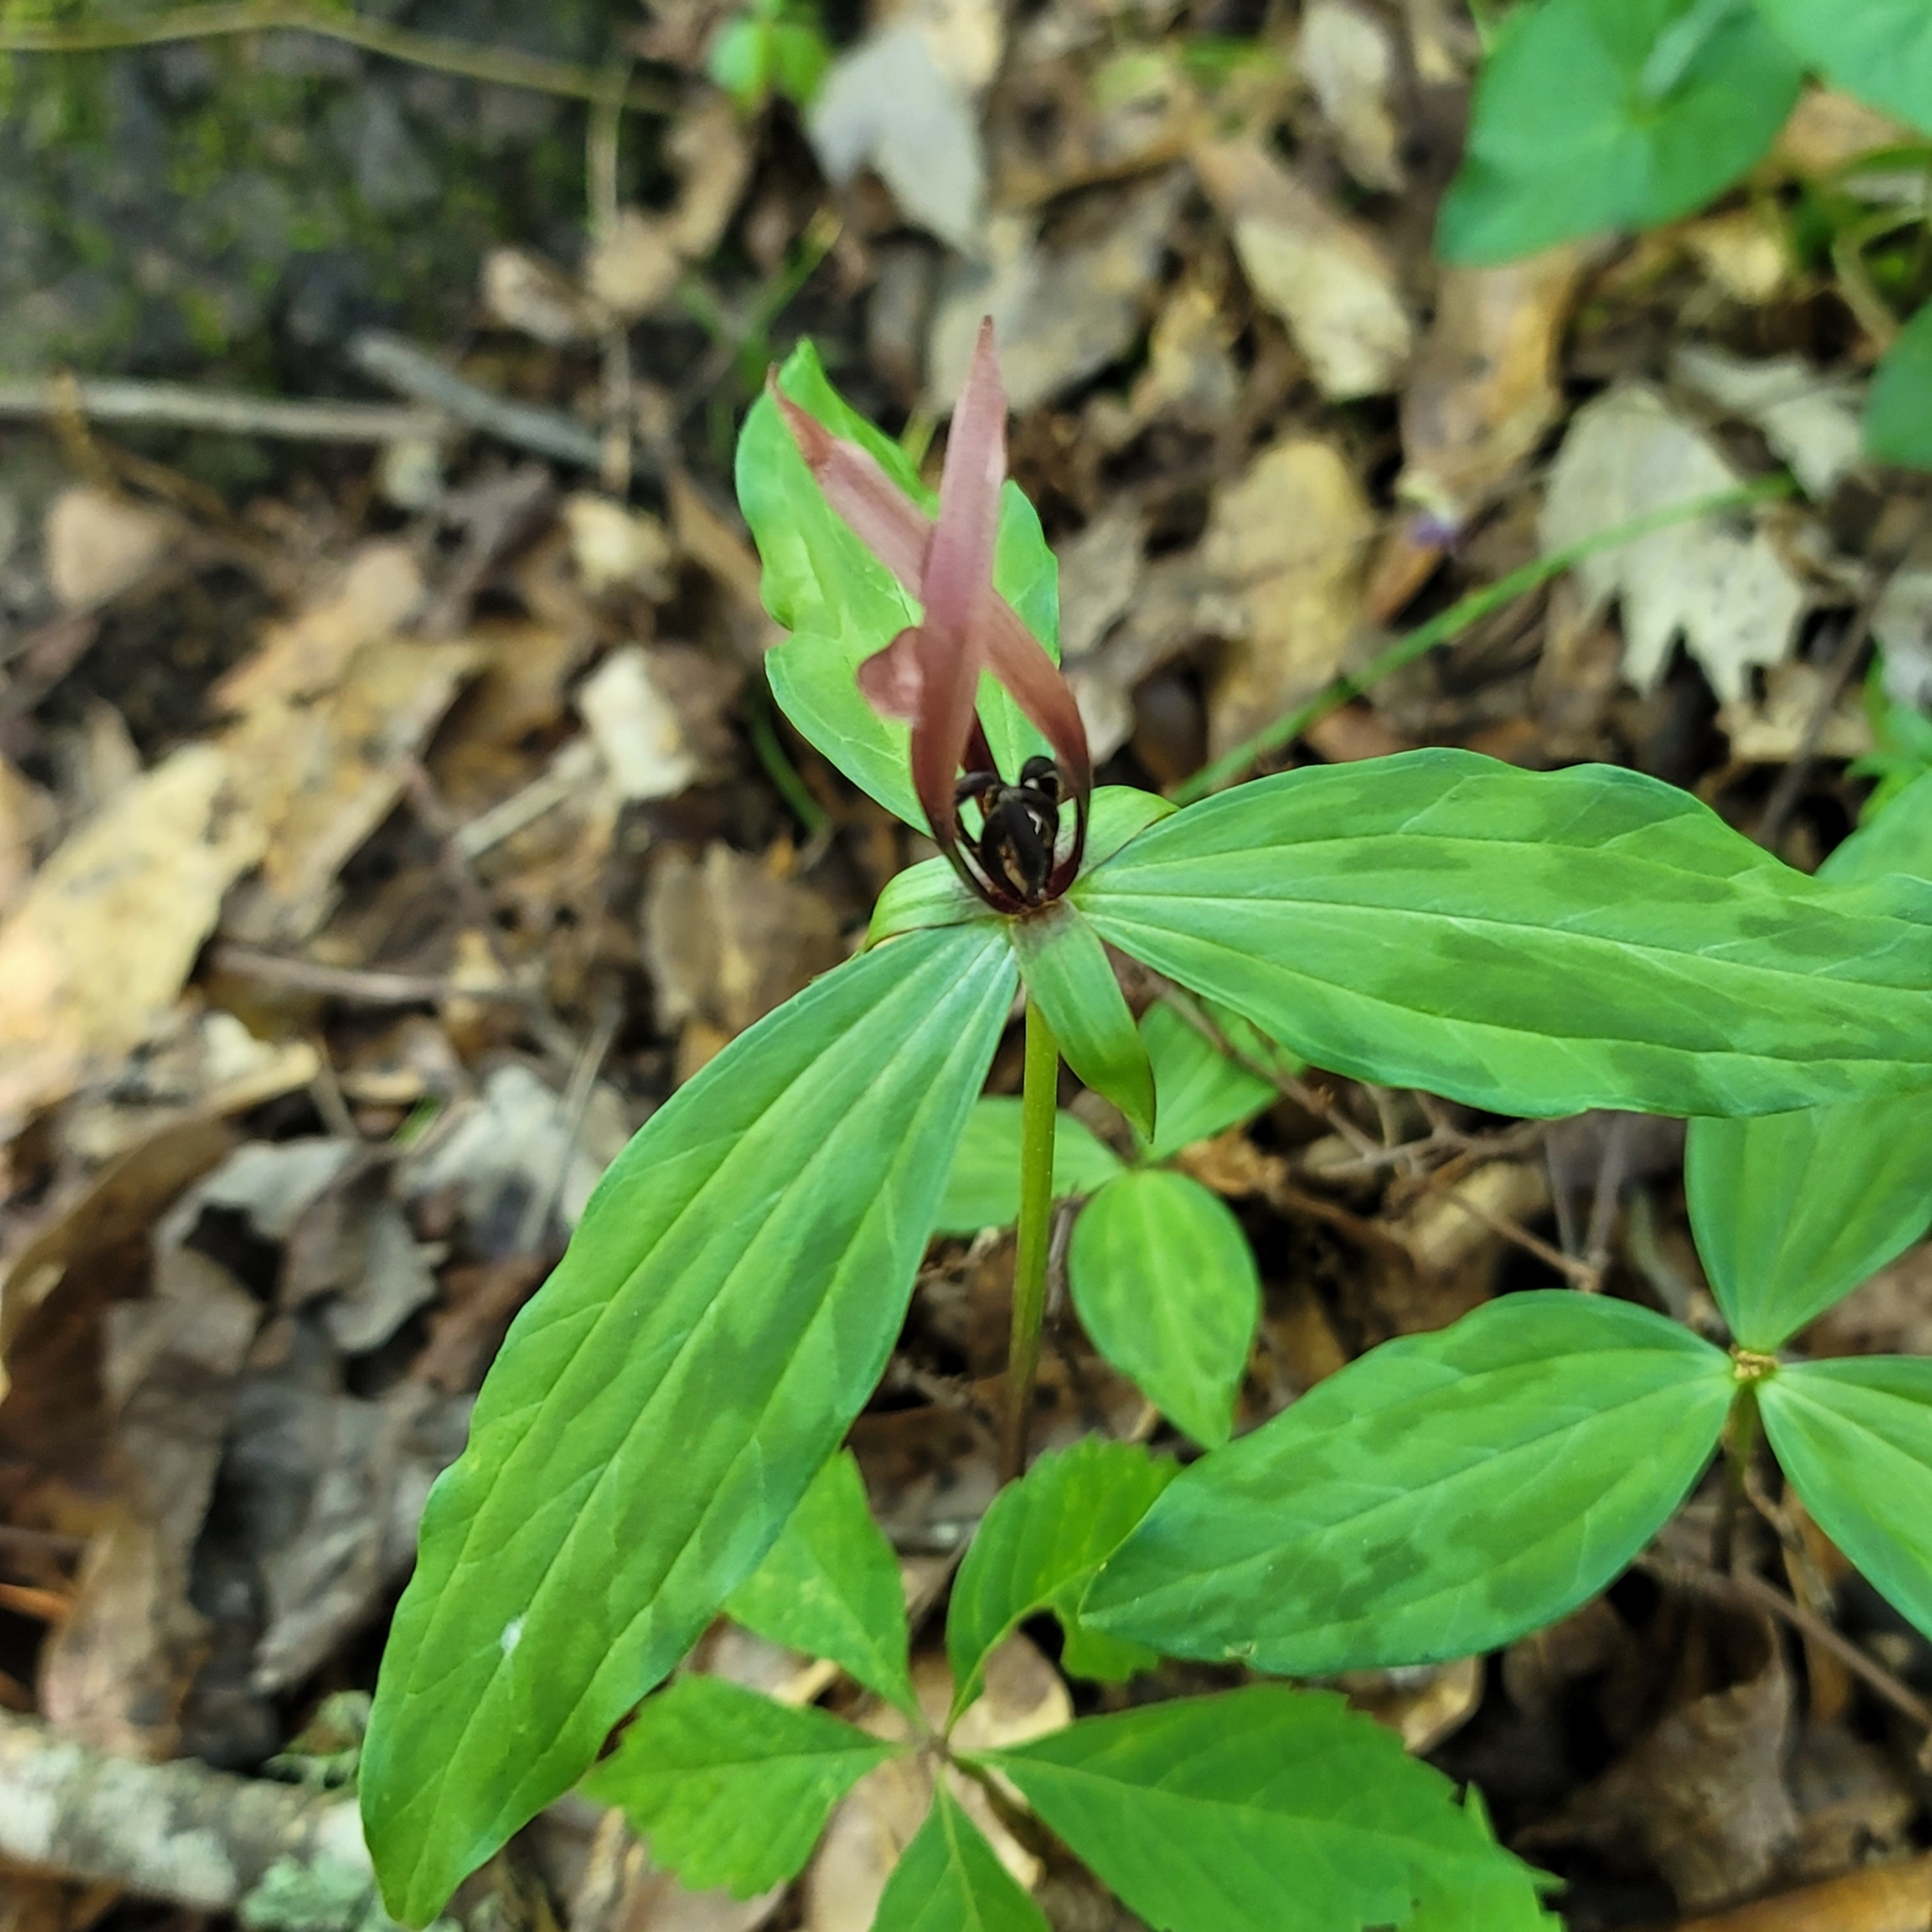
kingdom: Plantae
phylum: Tracheophyta
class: Liliopsida
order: Liliales
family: Melanthiaceae
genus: Trillium
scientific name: Trillium lancifolium
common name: Lance-leaved trillium
